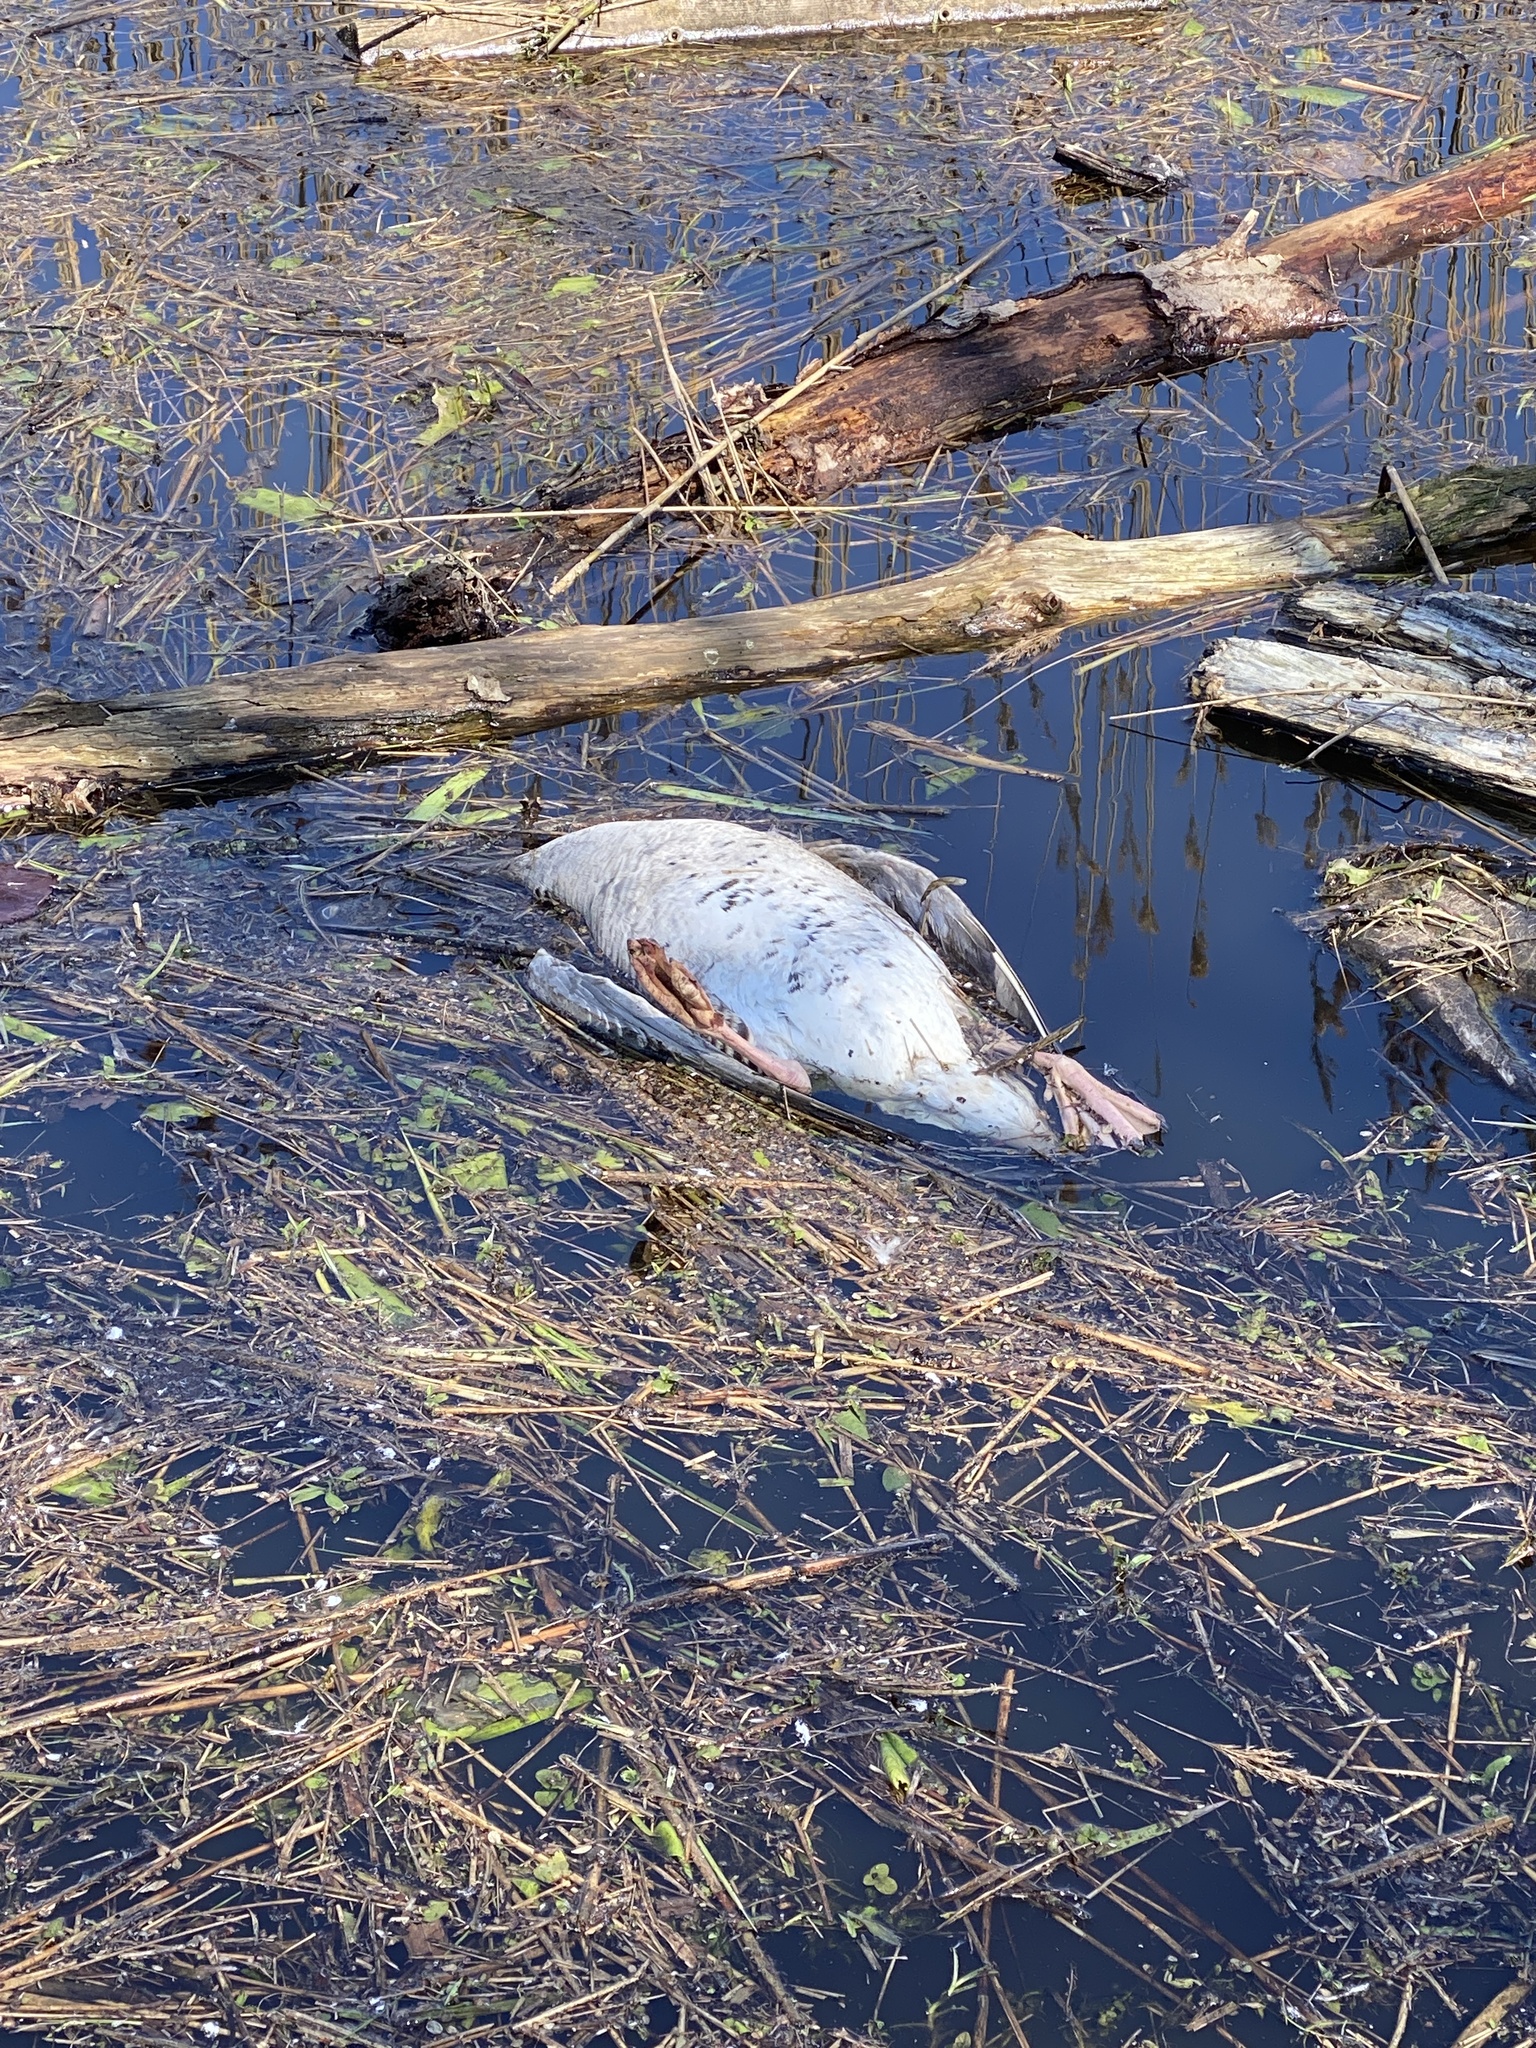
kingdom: Animalia
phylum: Chordata
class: Aves
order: Anseriformes
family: Anatidae
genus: Anser
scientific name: Anser anser
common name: Greylag goose
